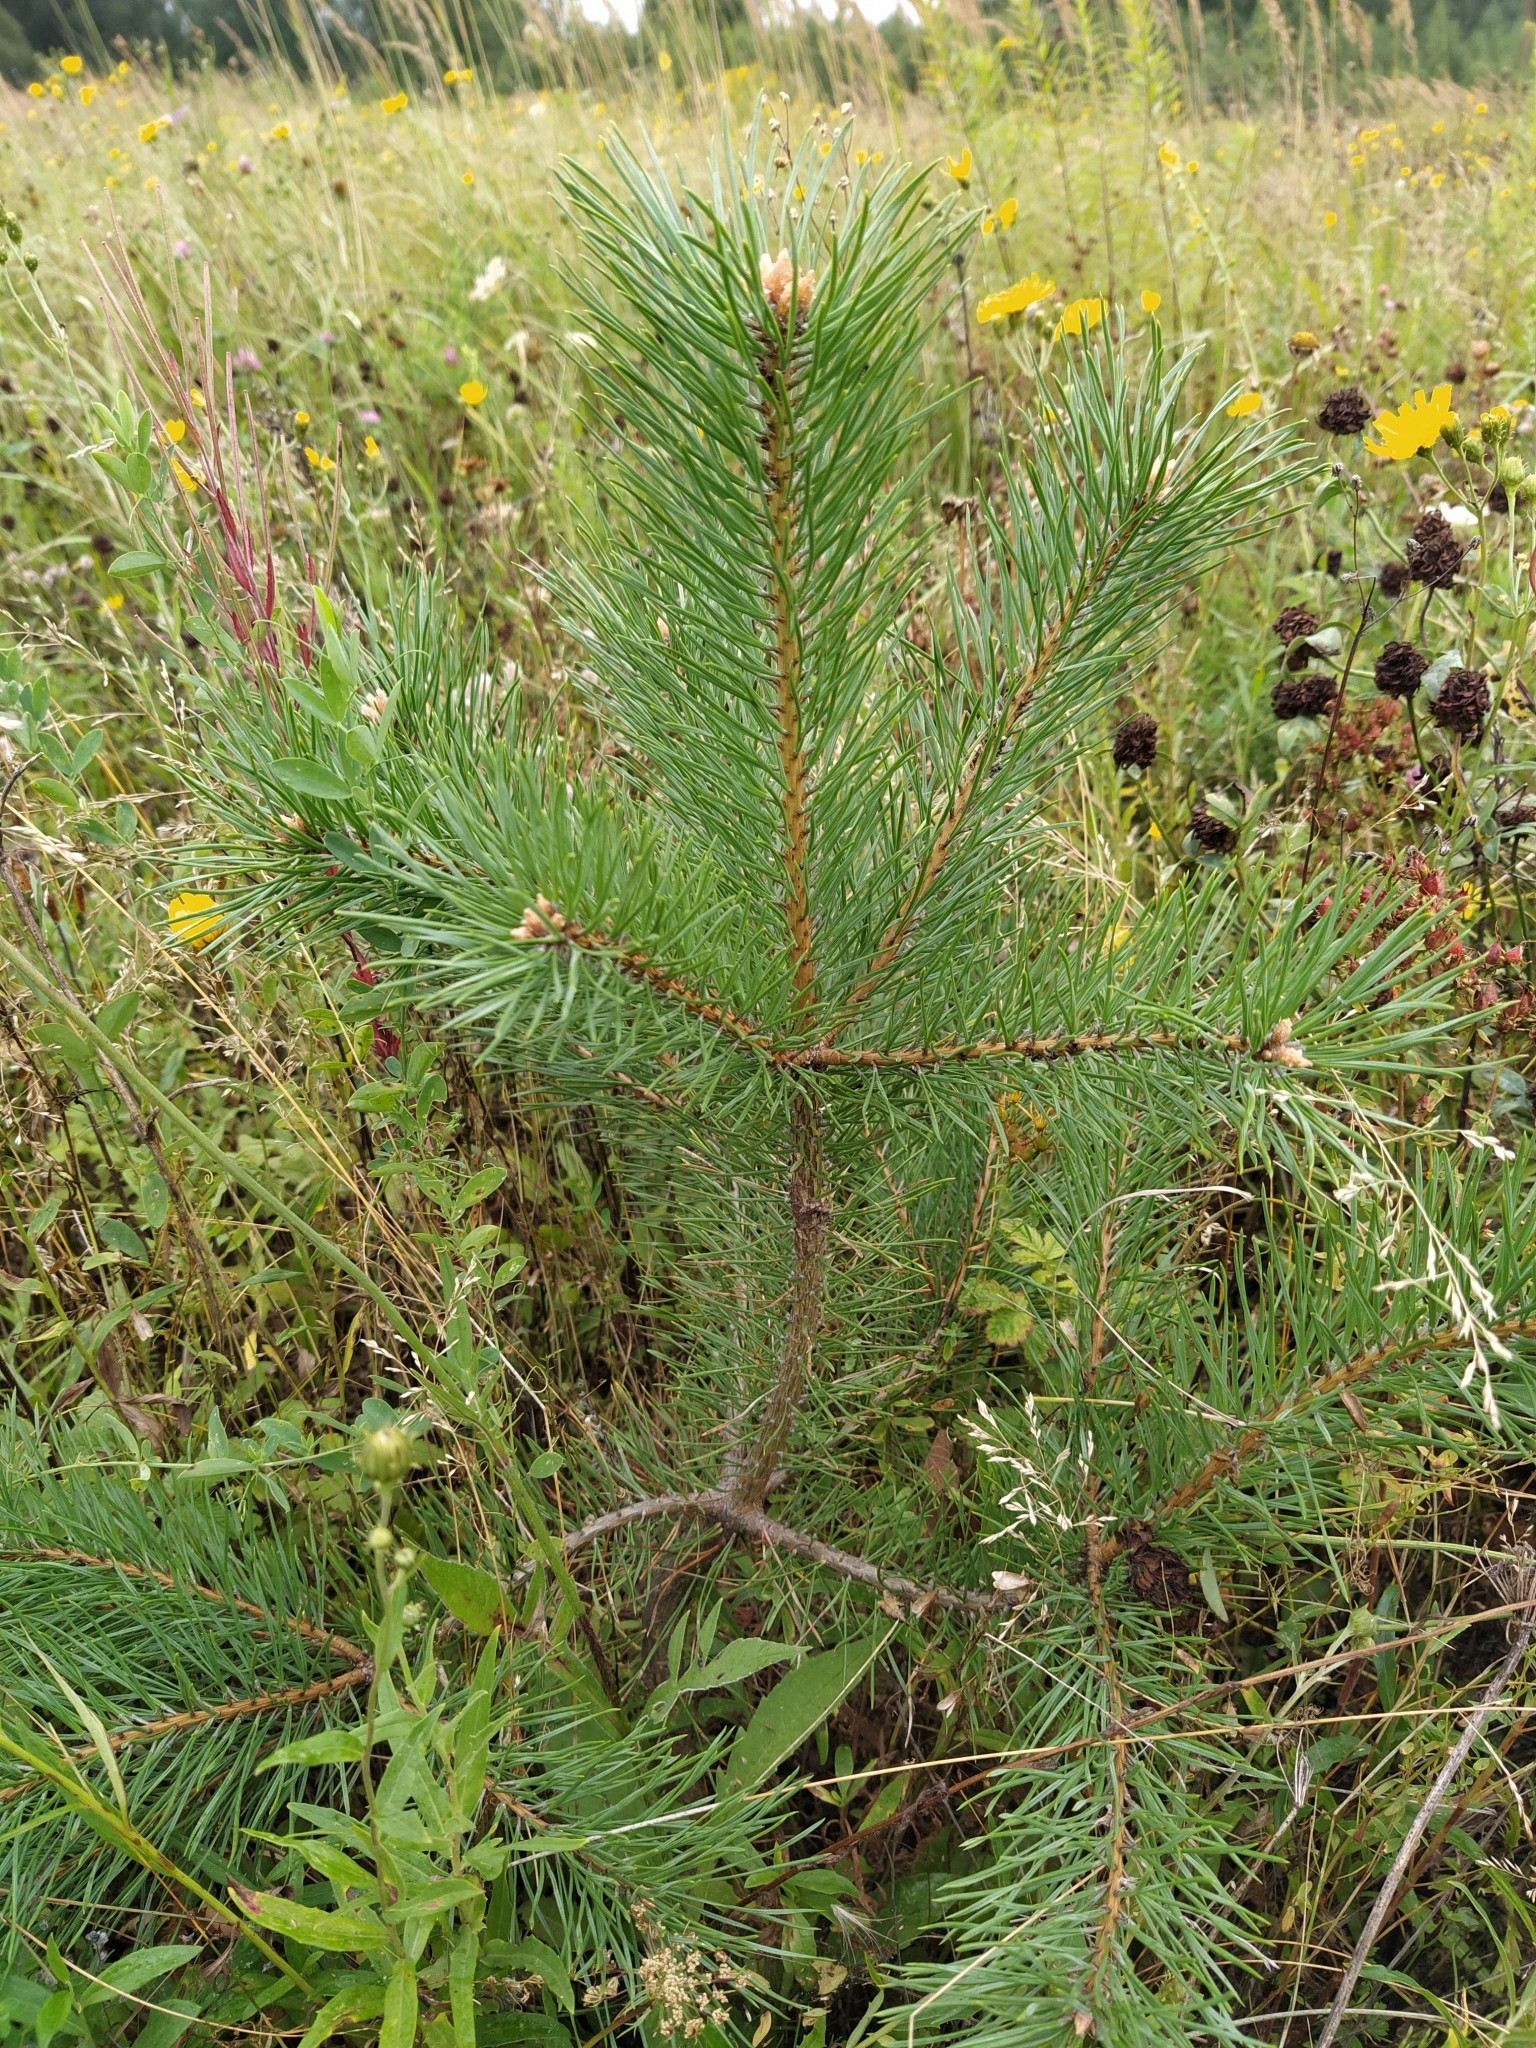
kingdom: Plantae
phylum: Tracheophyta
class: Pinopsida
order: Pinales
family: Pinaceae
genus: Pinus
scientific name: Pinus sylvestris
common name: Scots pine
